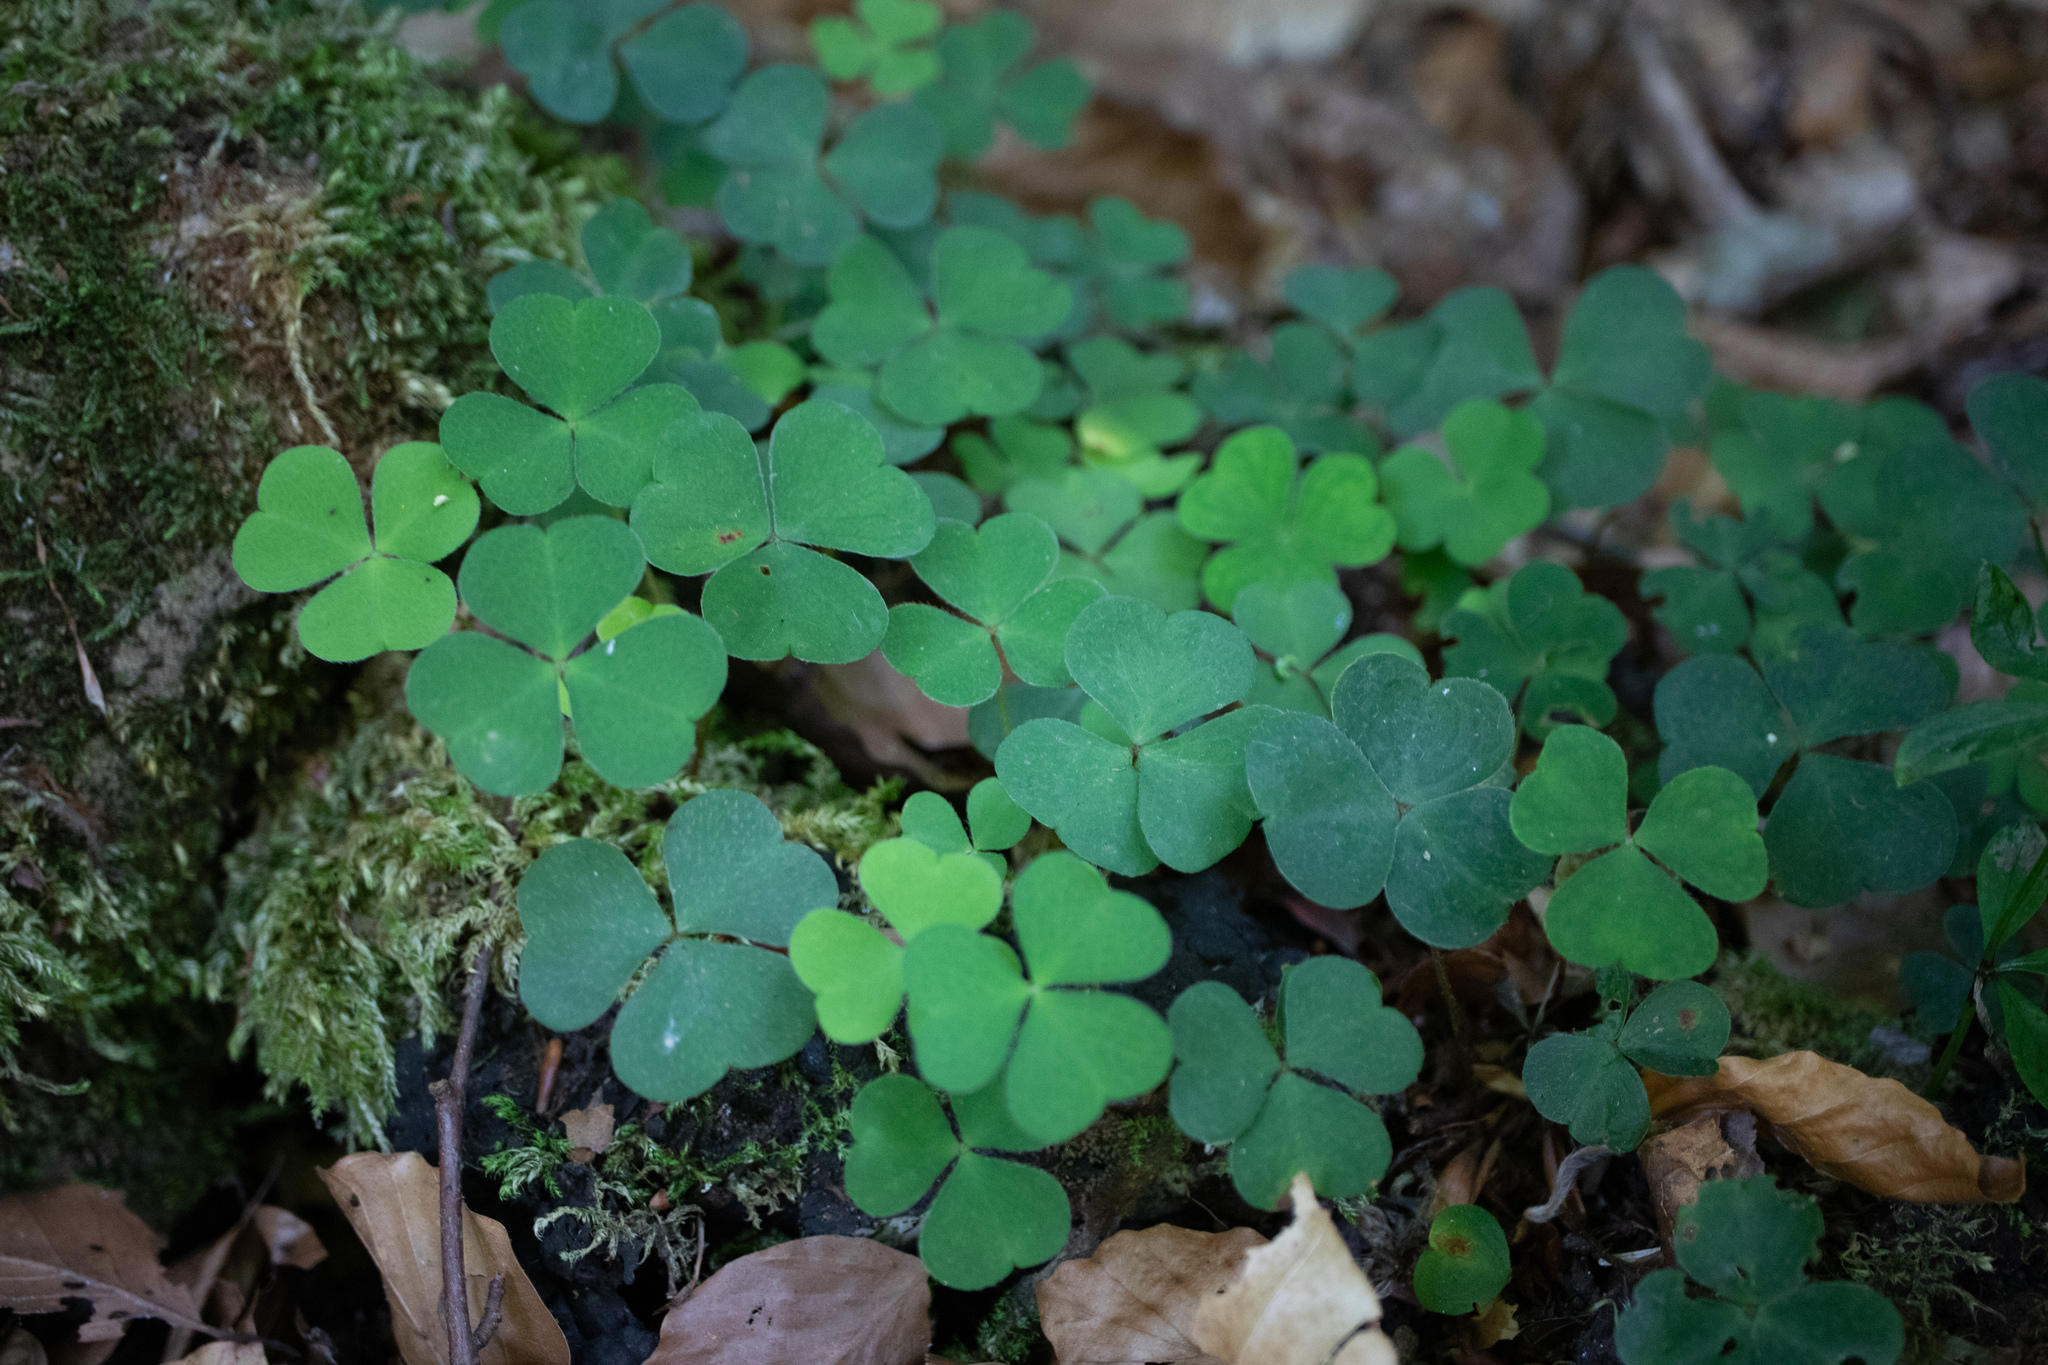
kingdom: Plantae
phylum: Tracheophyta
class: Magnoliopsida
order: Oxalidales
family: Oxalidaceae
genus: Oxalis
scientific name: Oxalis acetosella
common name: Wood-sorrel
